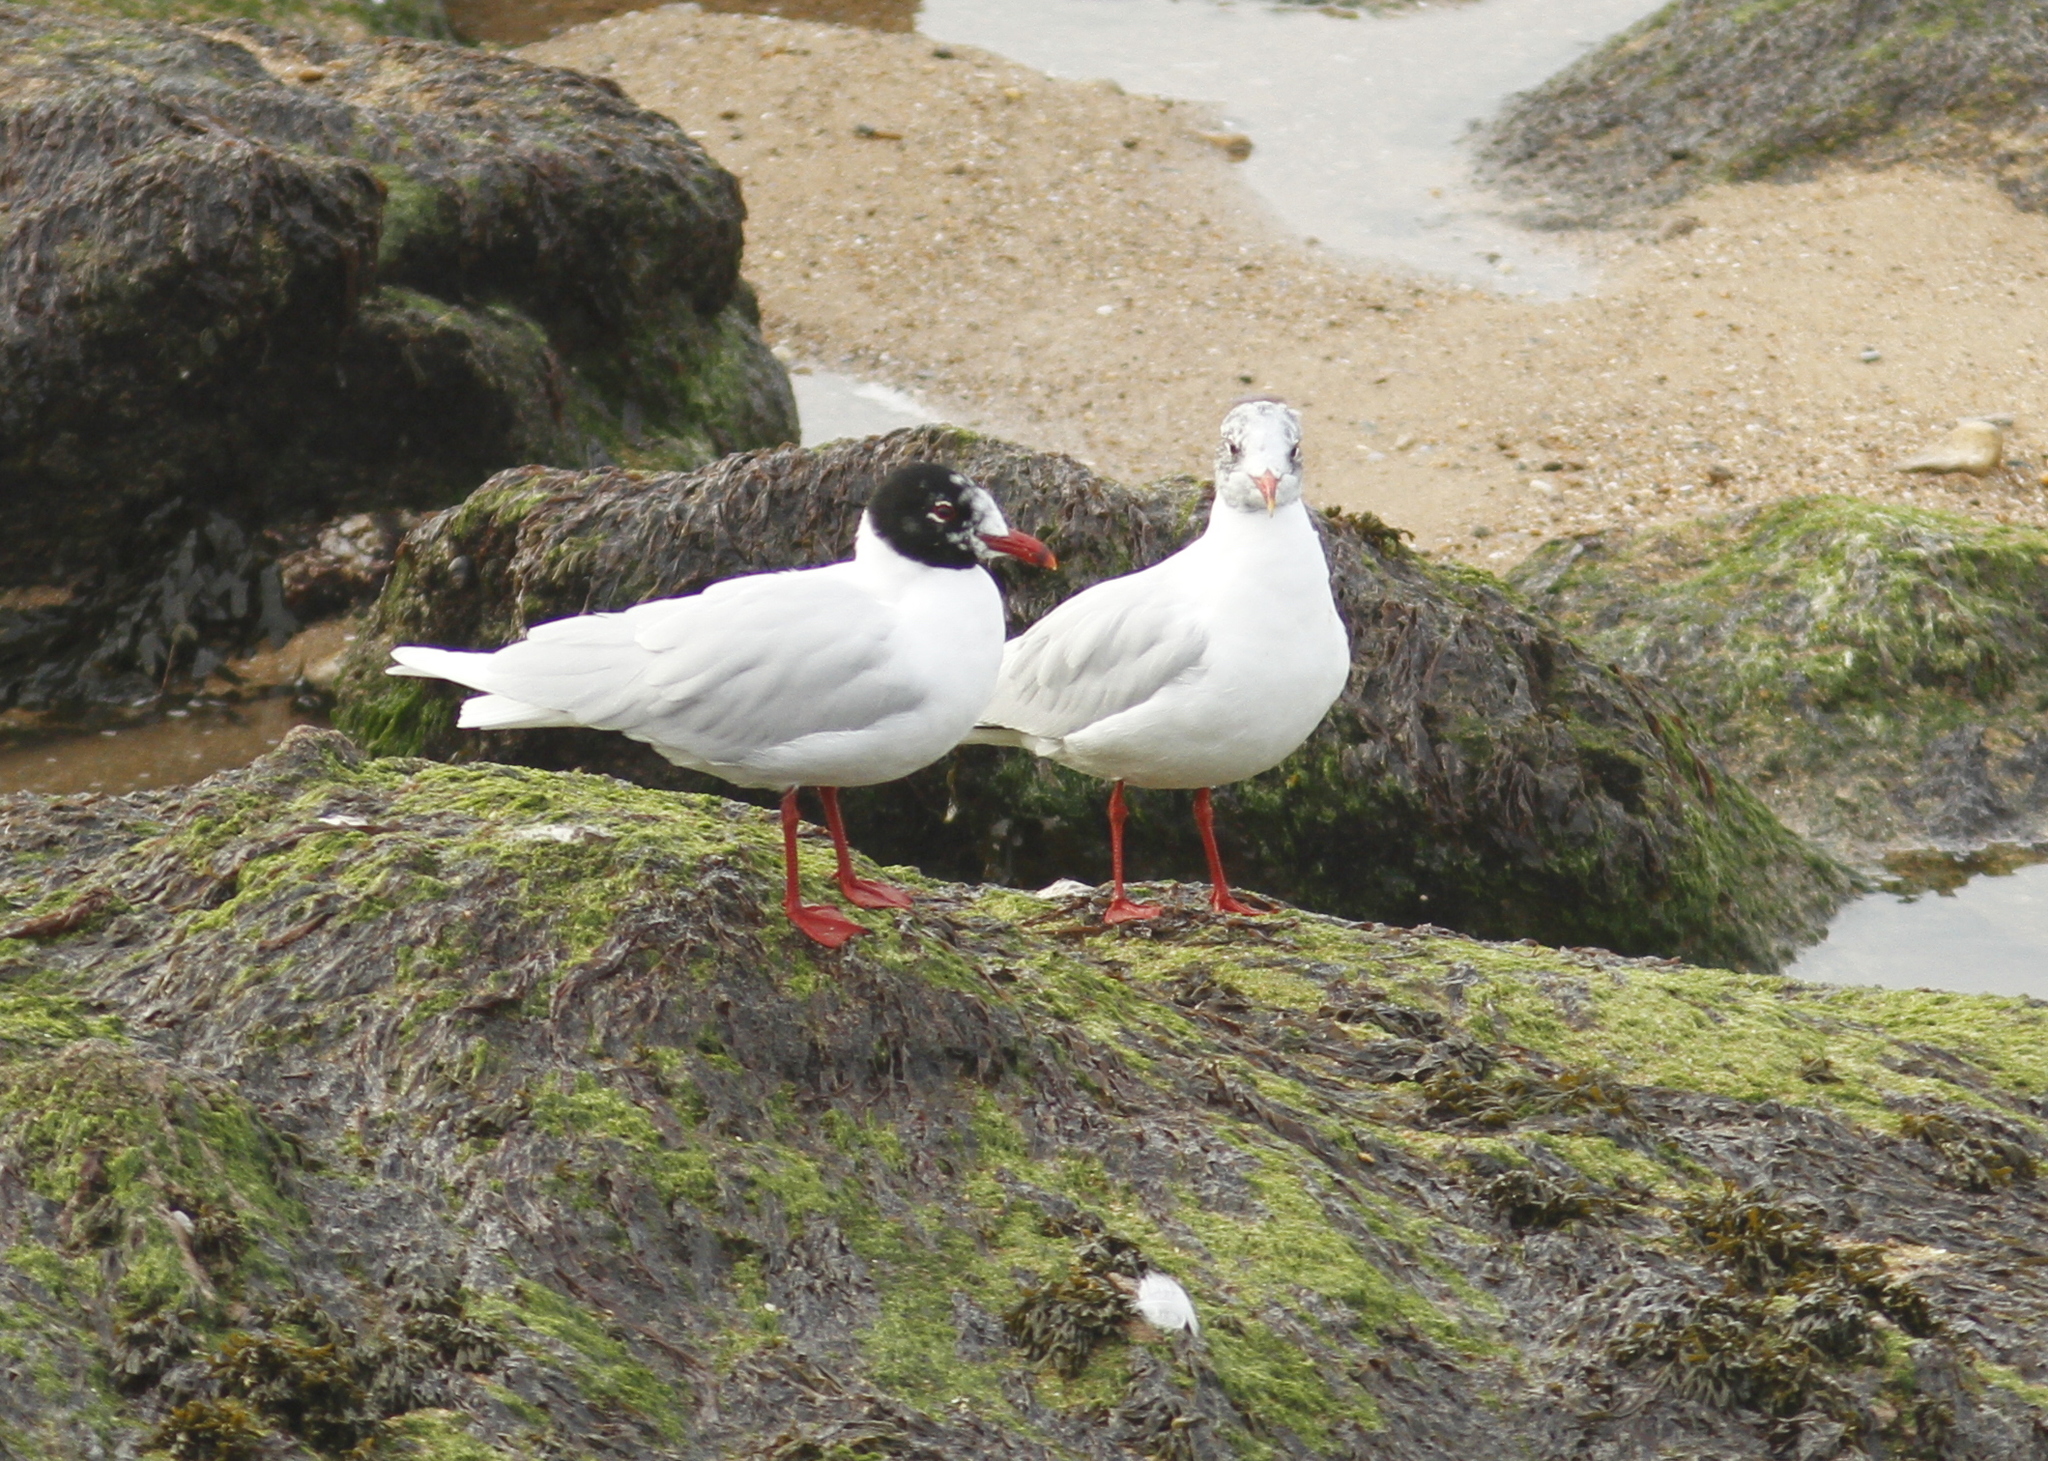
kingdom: Animalia
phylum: Chordata
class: Aves
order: Charadriiformes
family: Laridae
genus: Ichthyaetus
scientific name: Ichthyaetus melanocephalus
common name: Mediterranean gull
